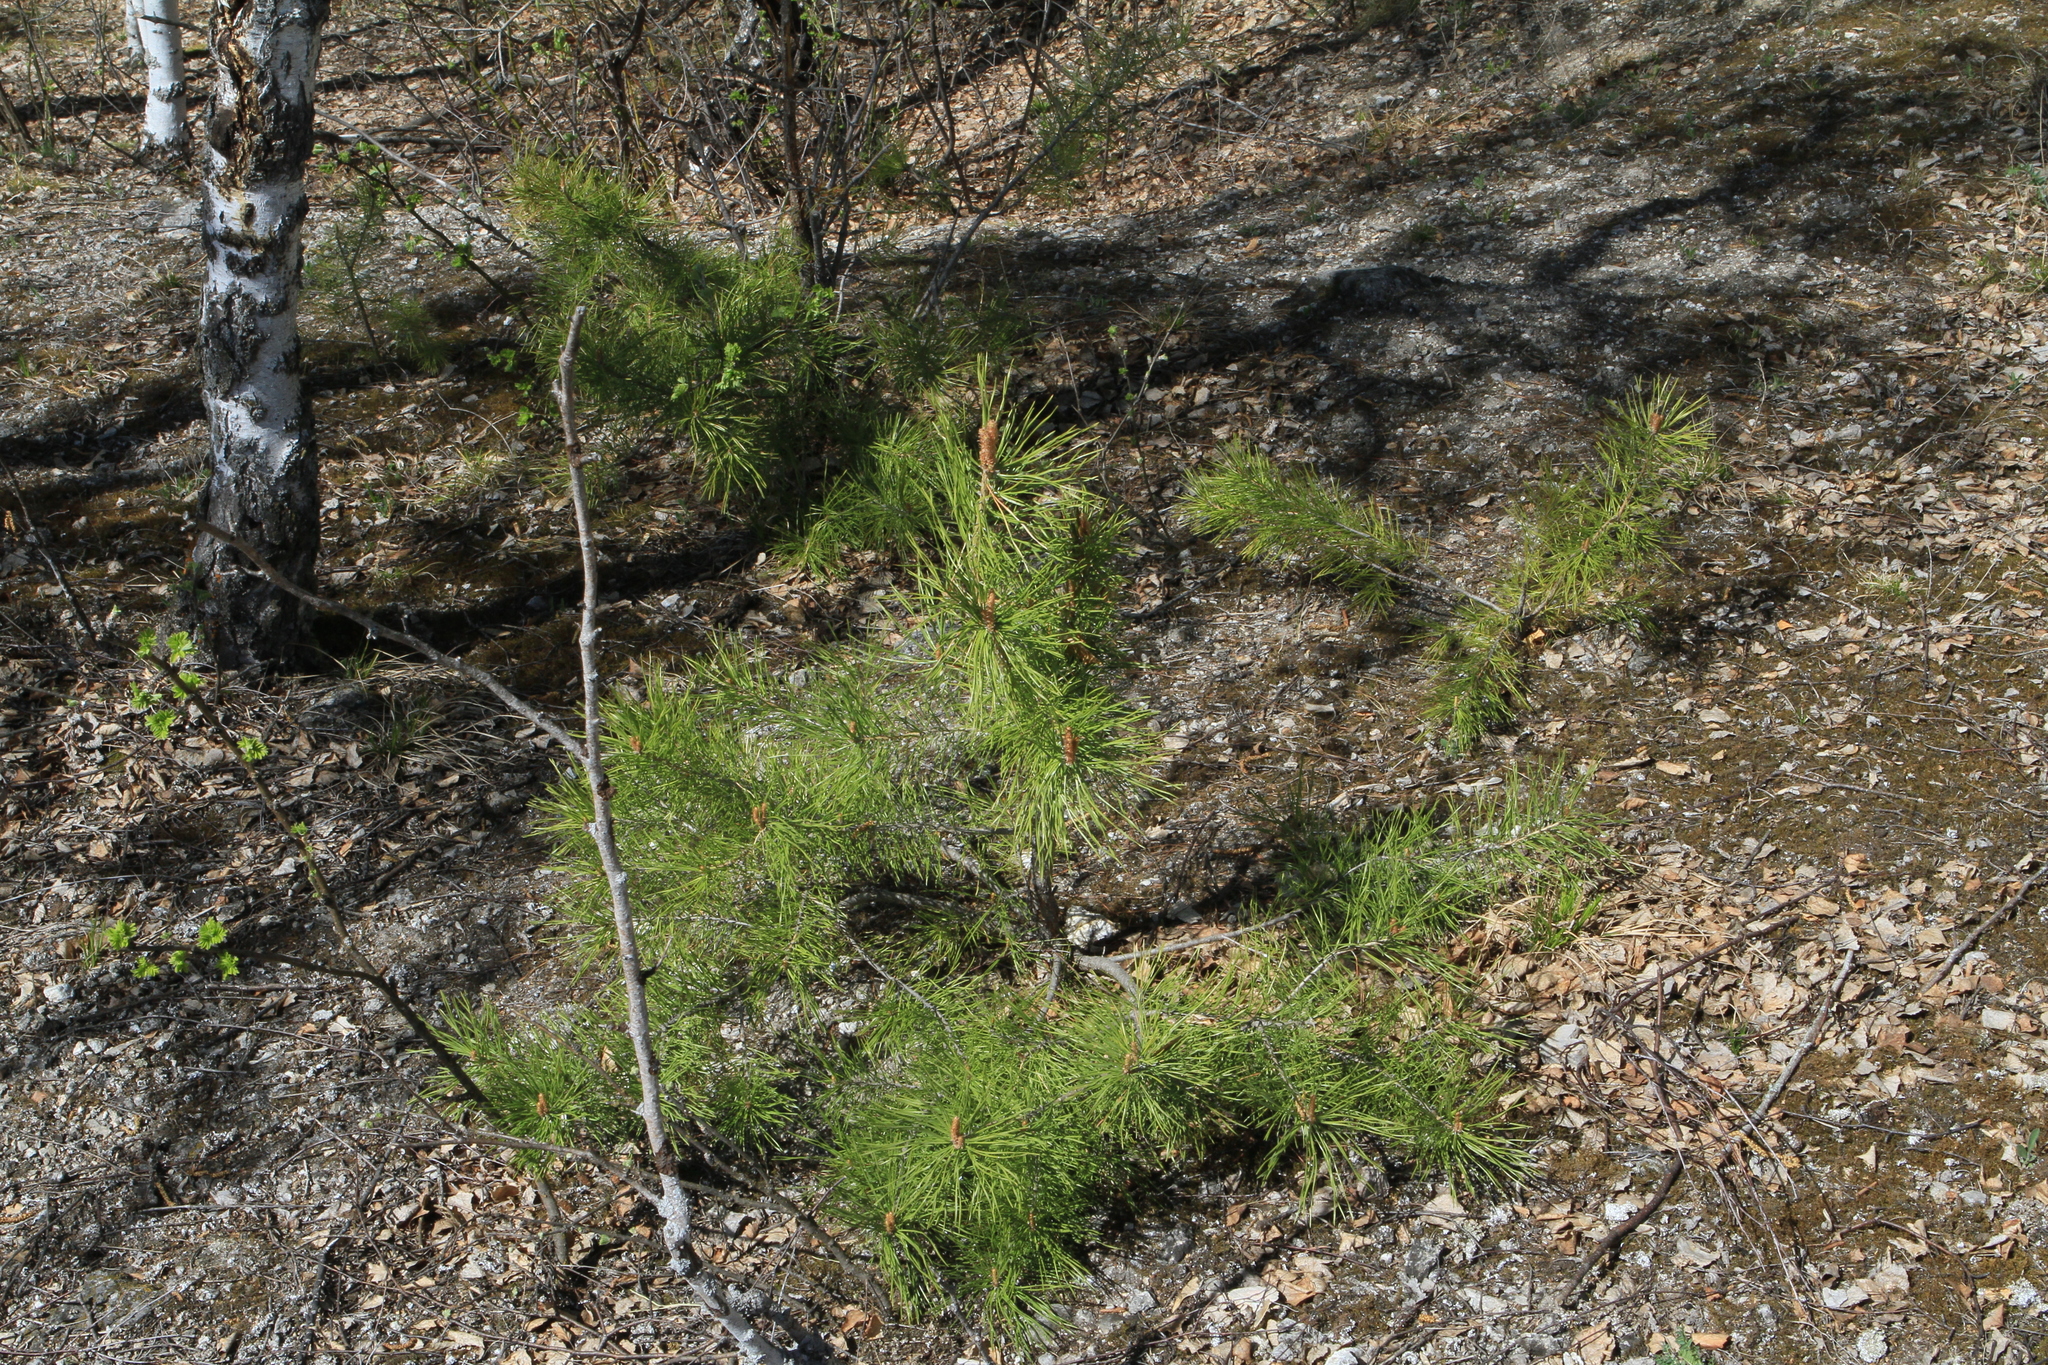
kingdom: Plantae
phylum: Tracheophyta
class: Pinopsida
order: Pinales
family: Pinaceae
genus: Pinus
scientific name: Pinus sylvestris
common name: Scots pine
